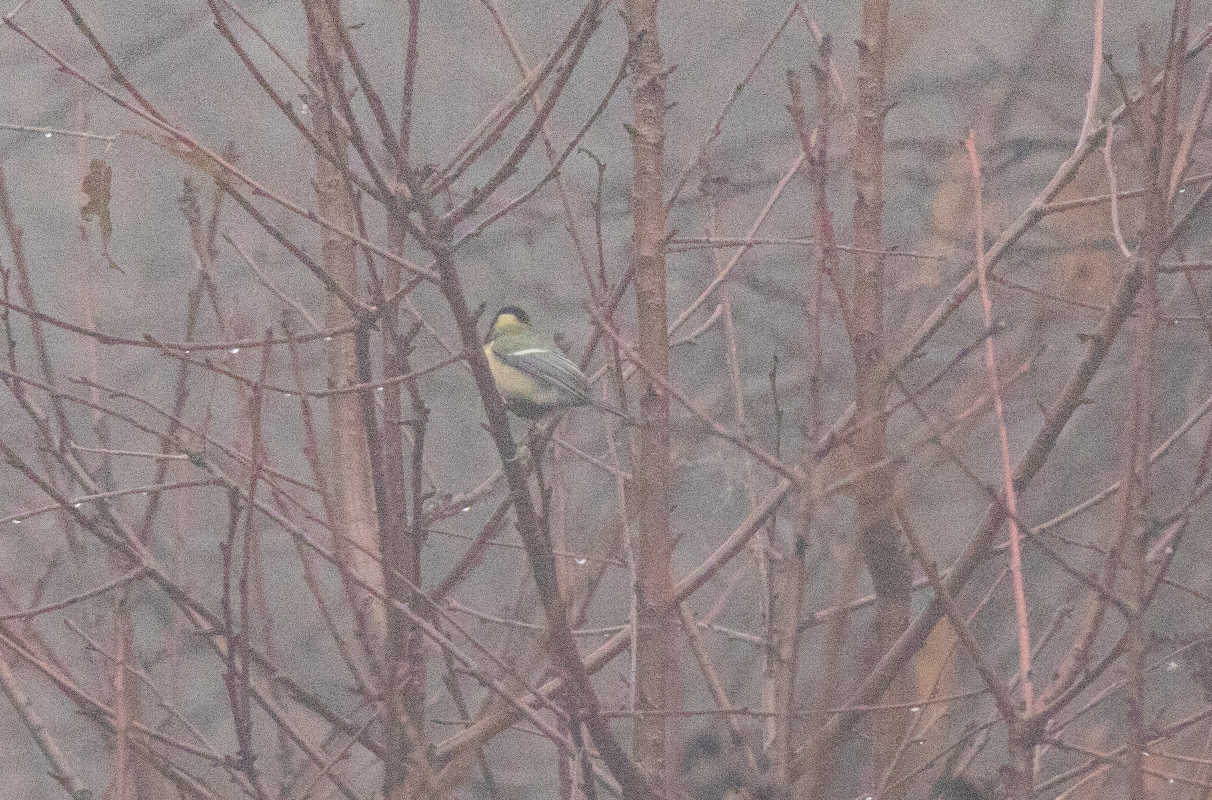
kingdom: Animalia
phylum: Chordata
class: Aves
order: Passeriformes
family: Paridae
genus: Parus
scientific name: Parus major
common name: Great tit
